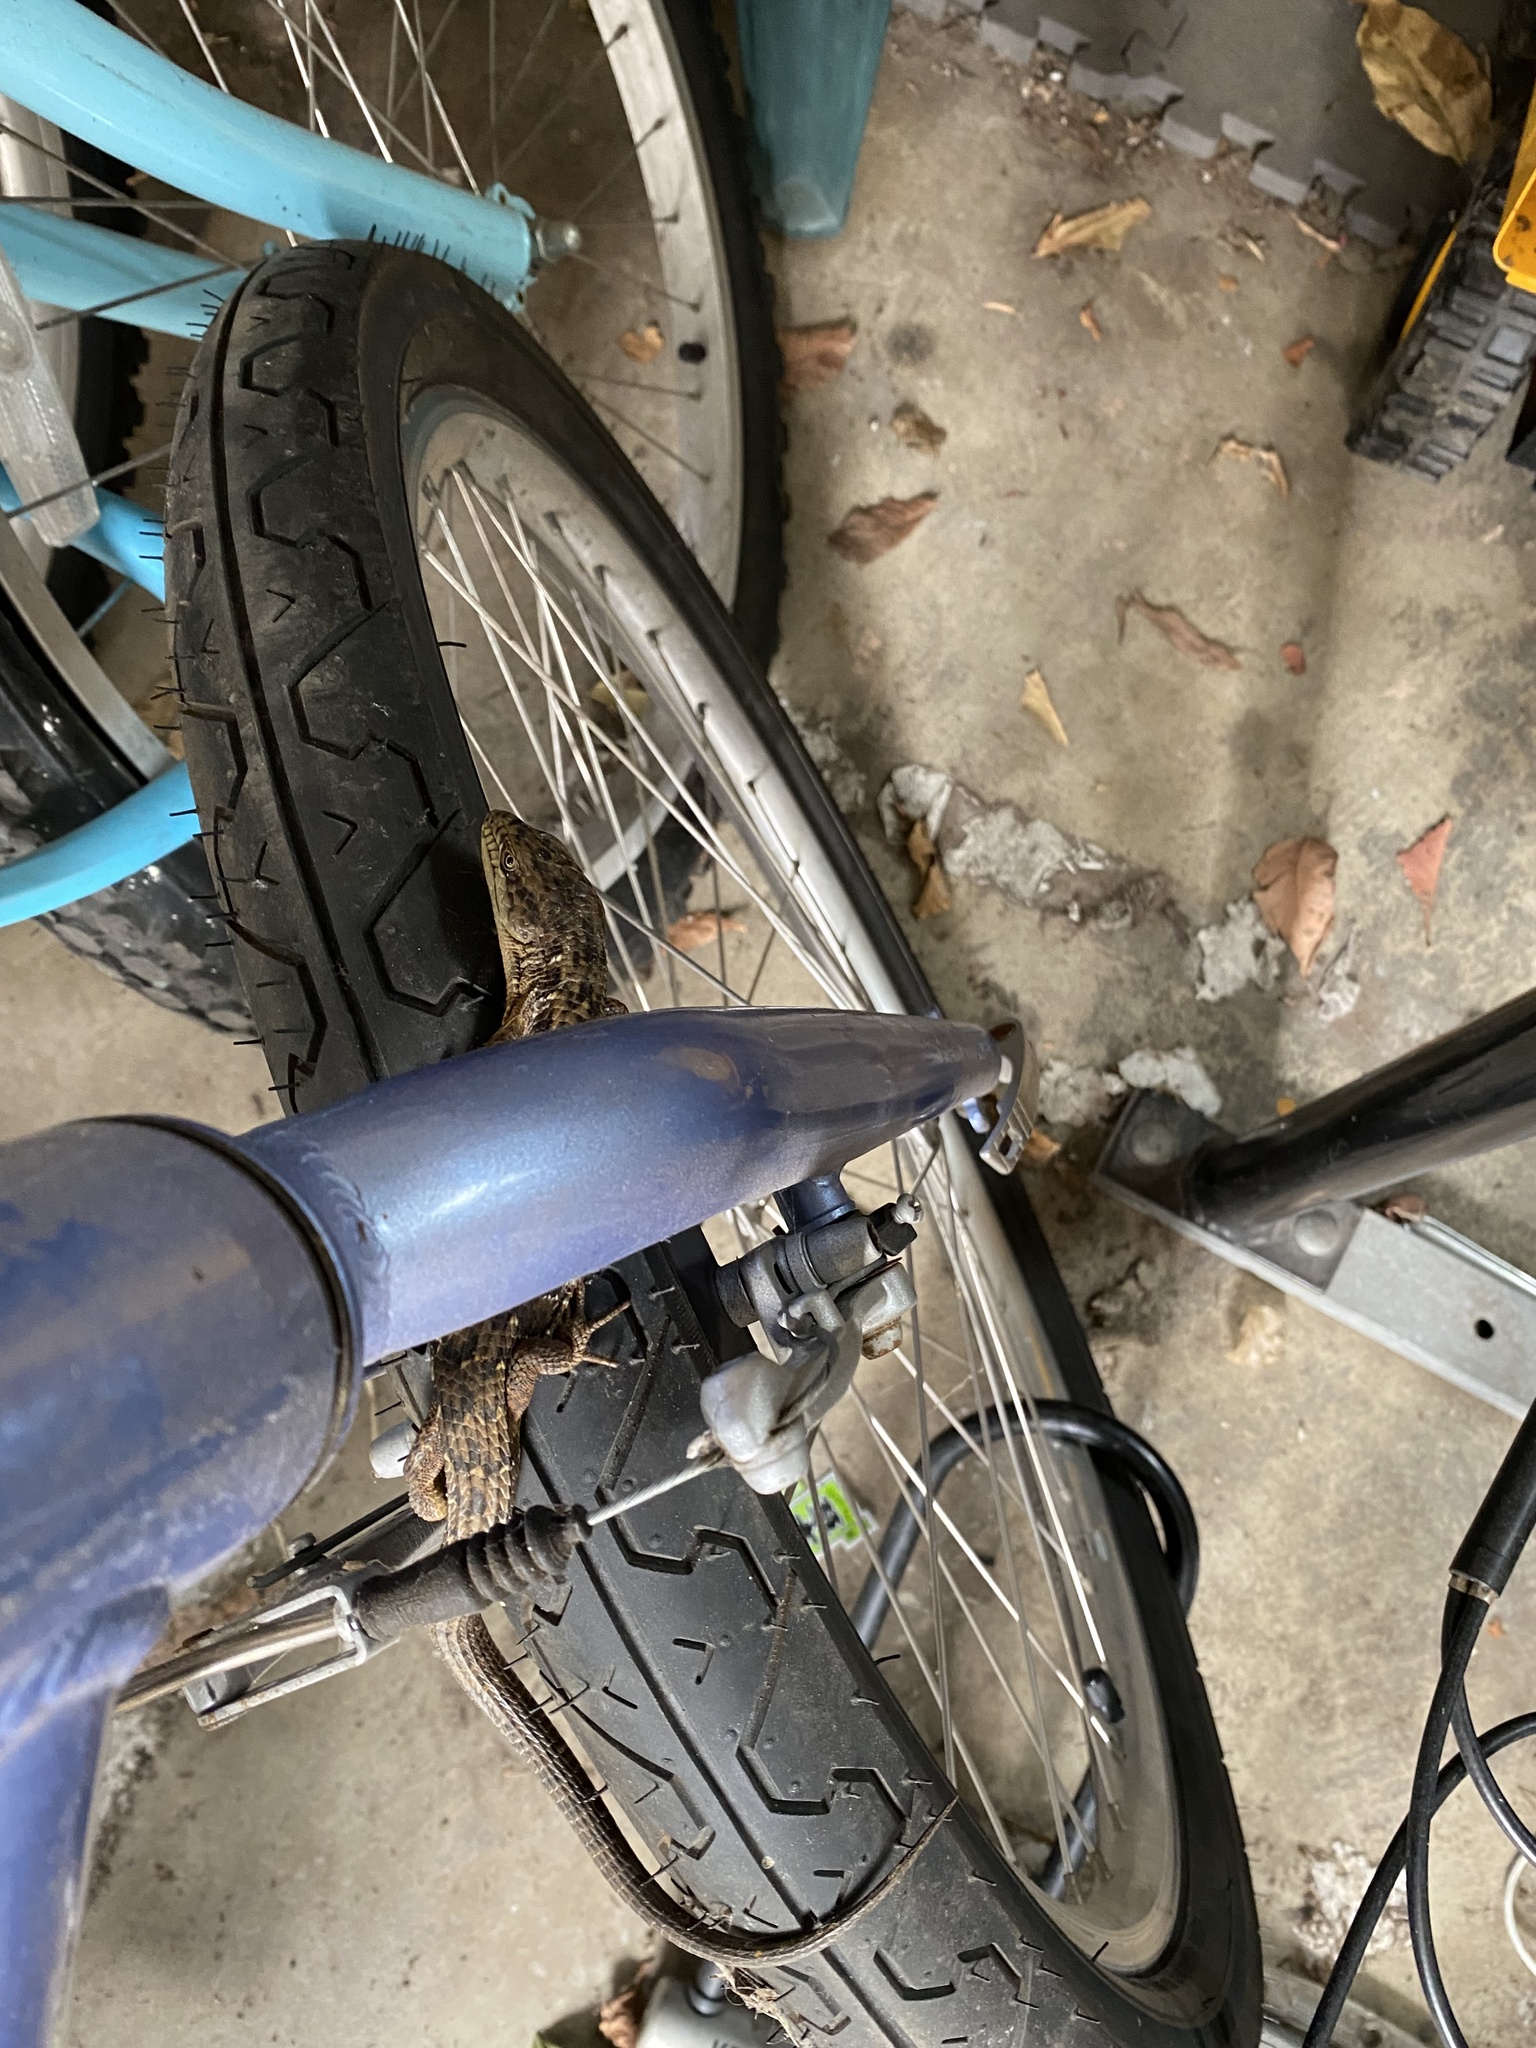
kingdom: Animalia
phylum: Chordata
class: Squamata
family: Anguidae
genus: Elgaria
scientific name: Elgaria multicarinata
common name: Southern alligator lizard
